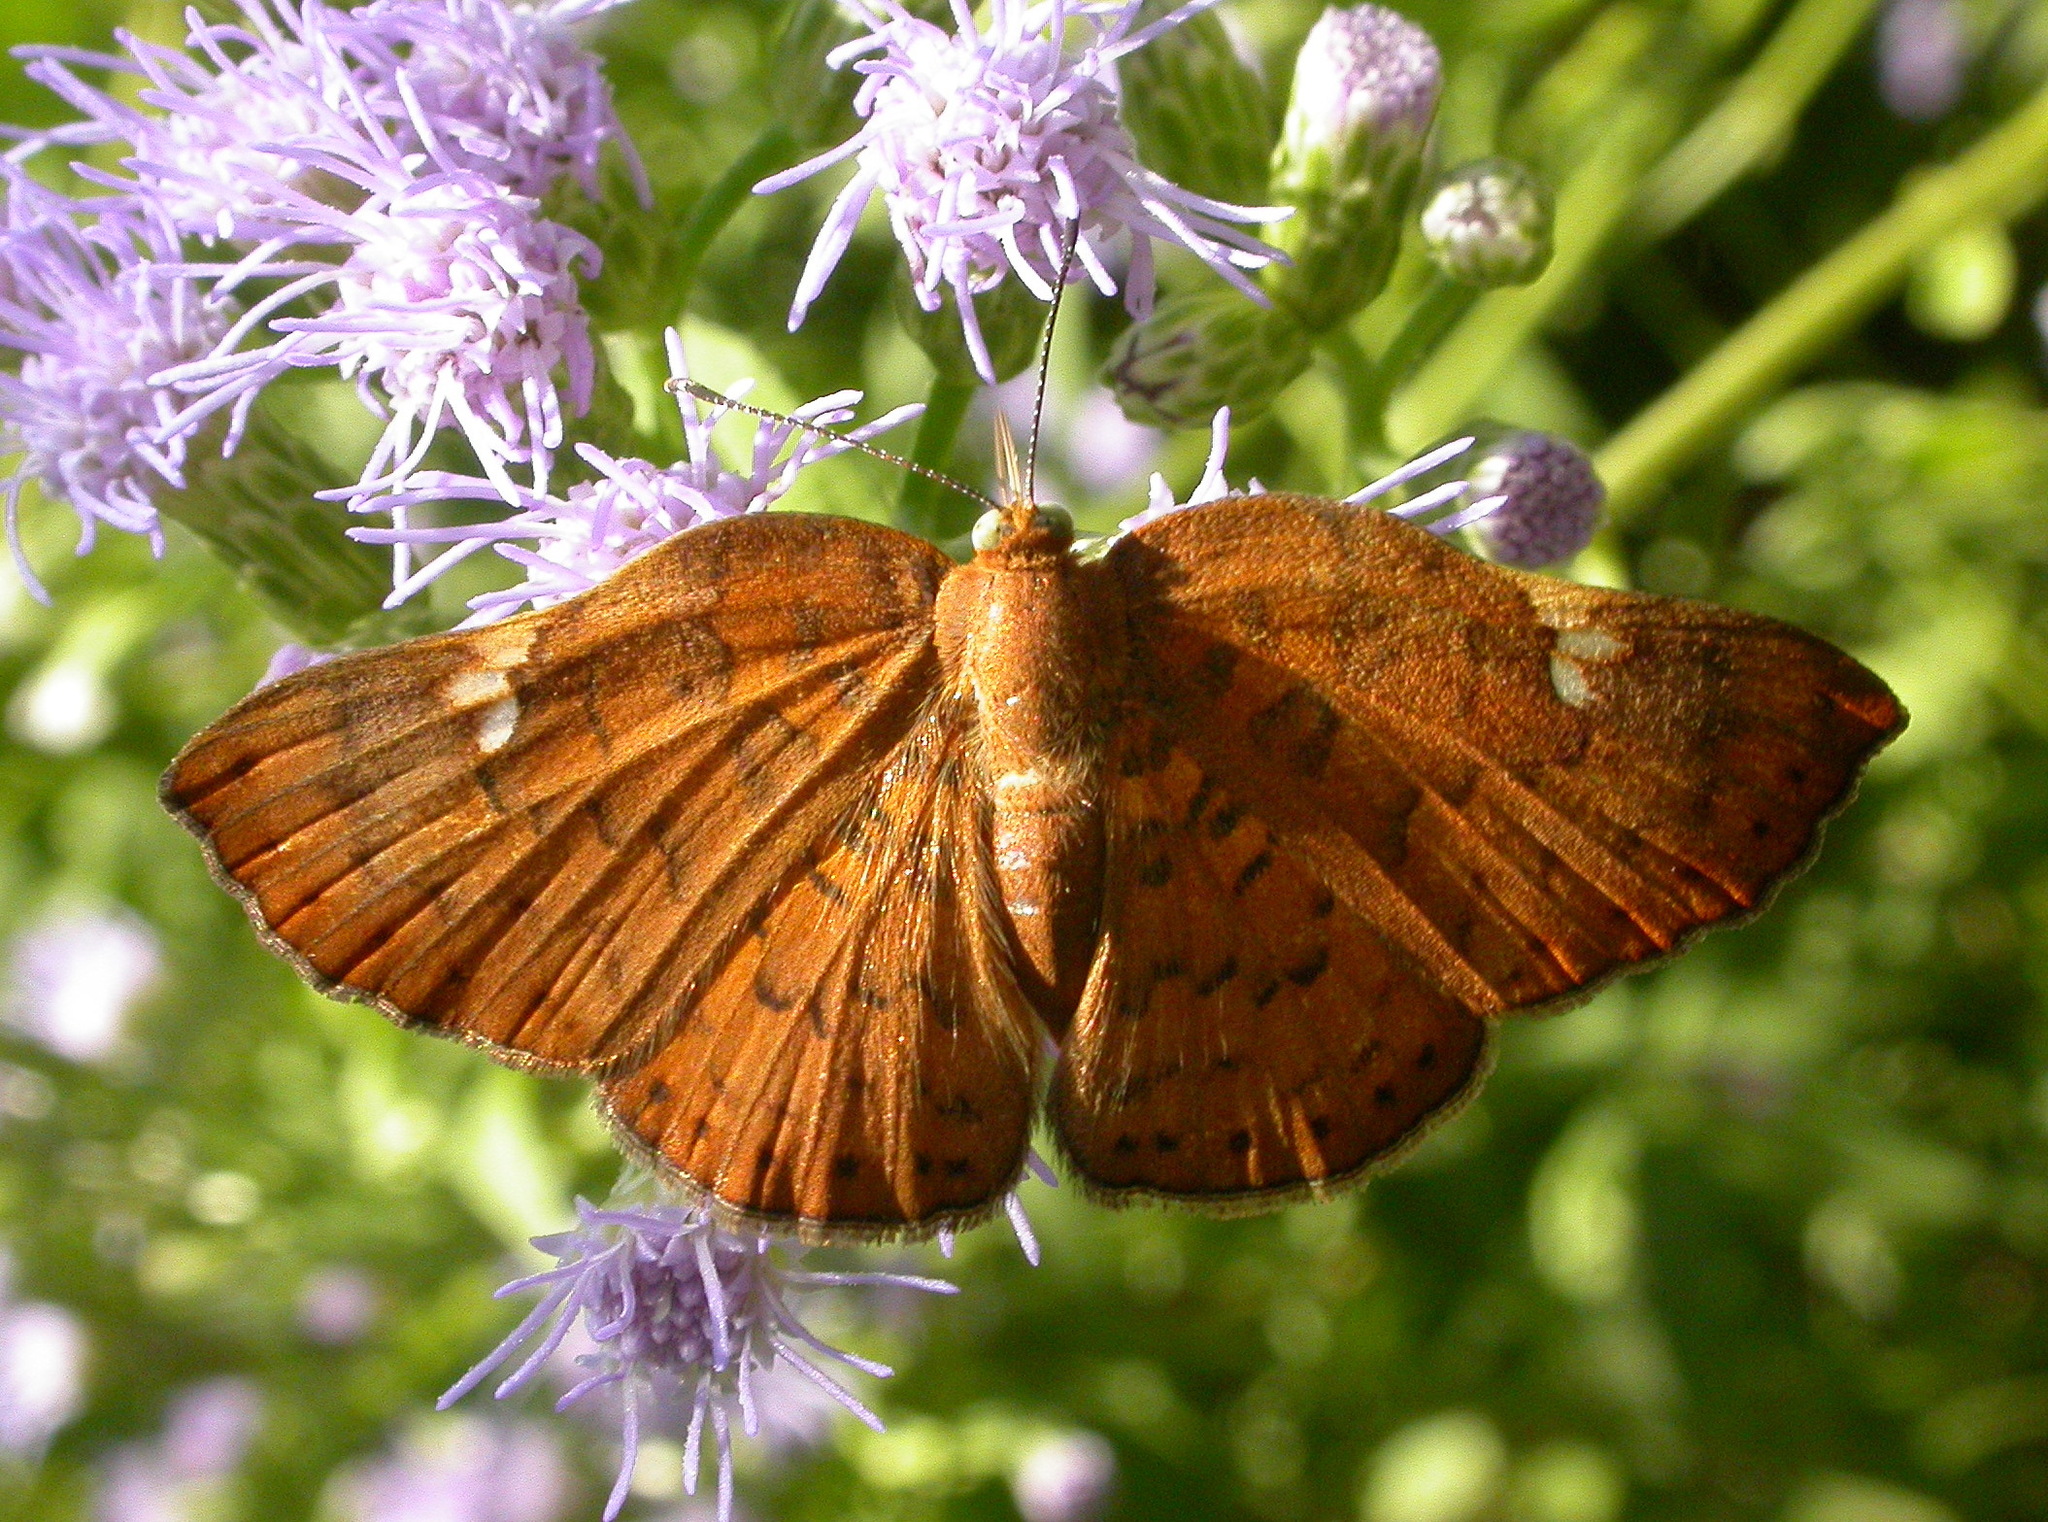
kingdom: Animalia
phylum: Arthropoda
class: Insecta
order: Lepidoptera
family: Riodinidae
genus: Curvie
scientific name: Curvie emesia
